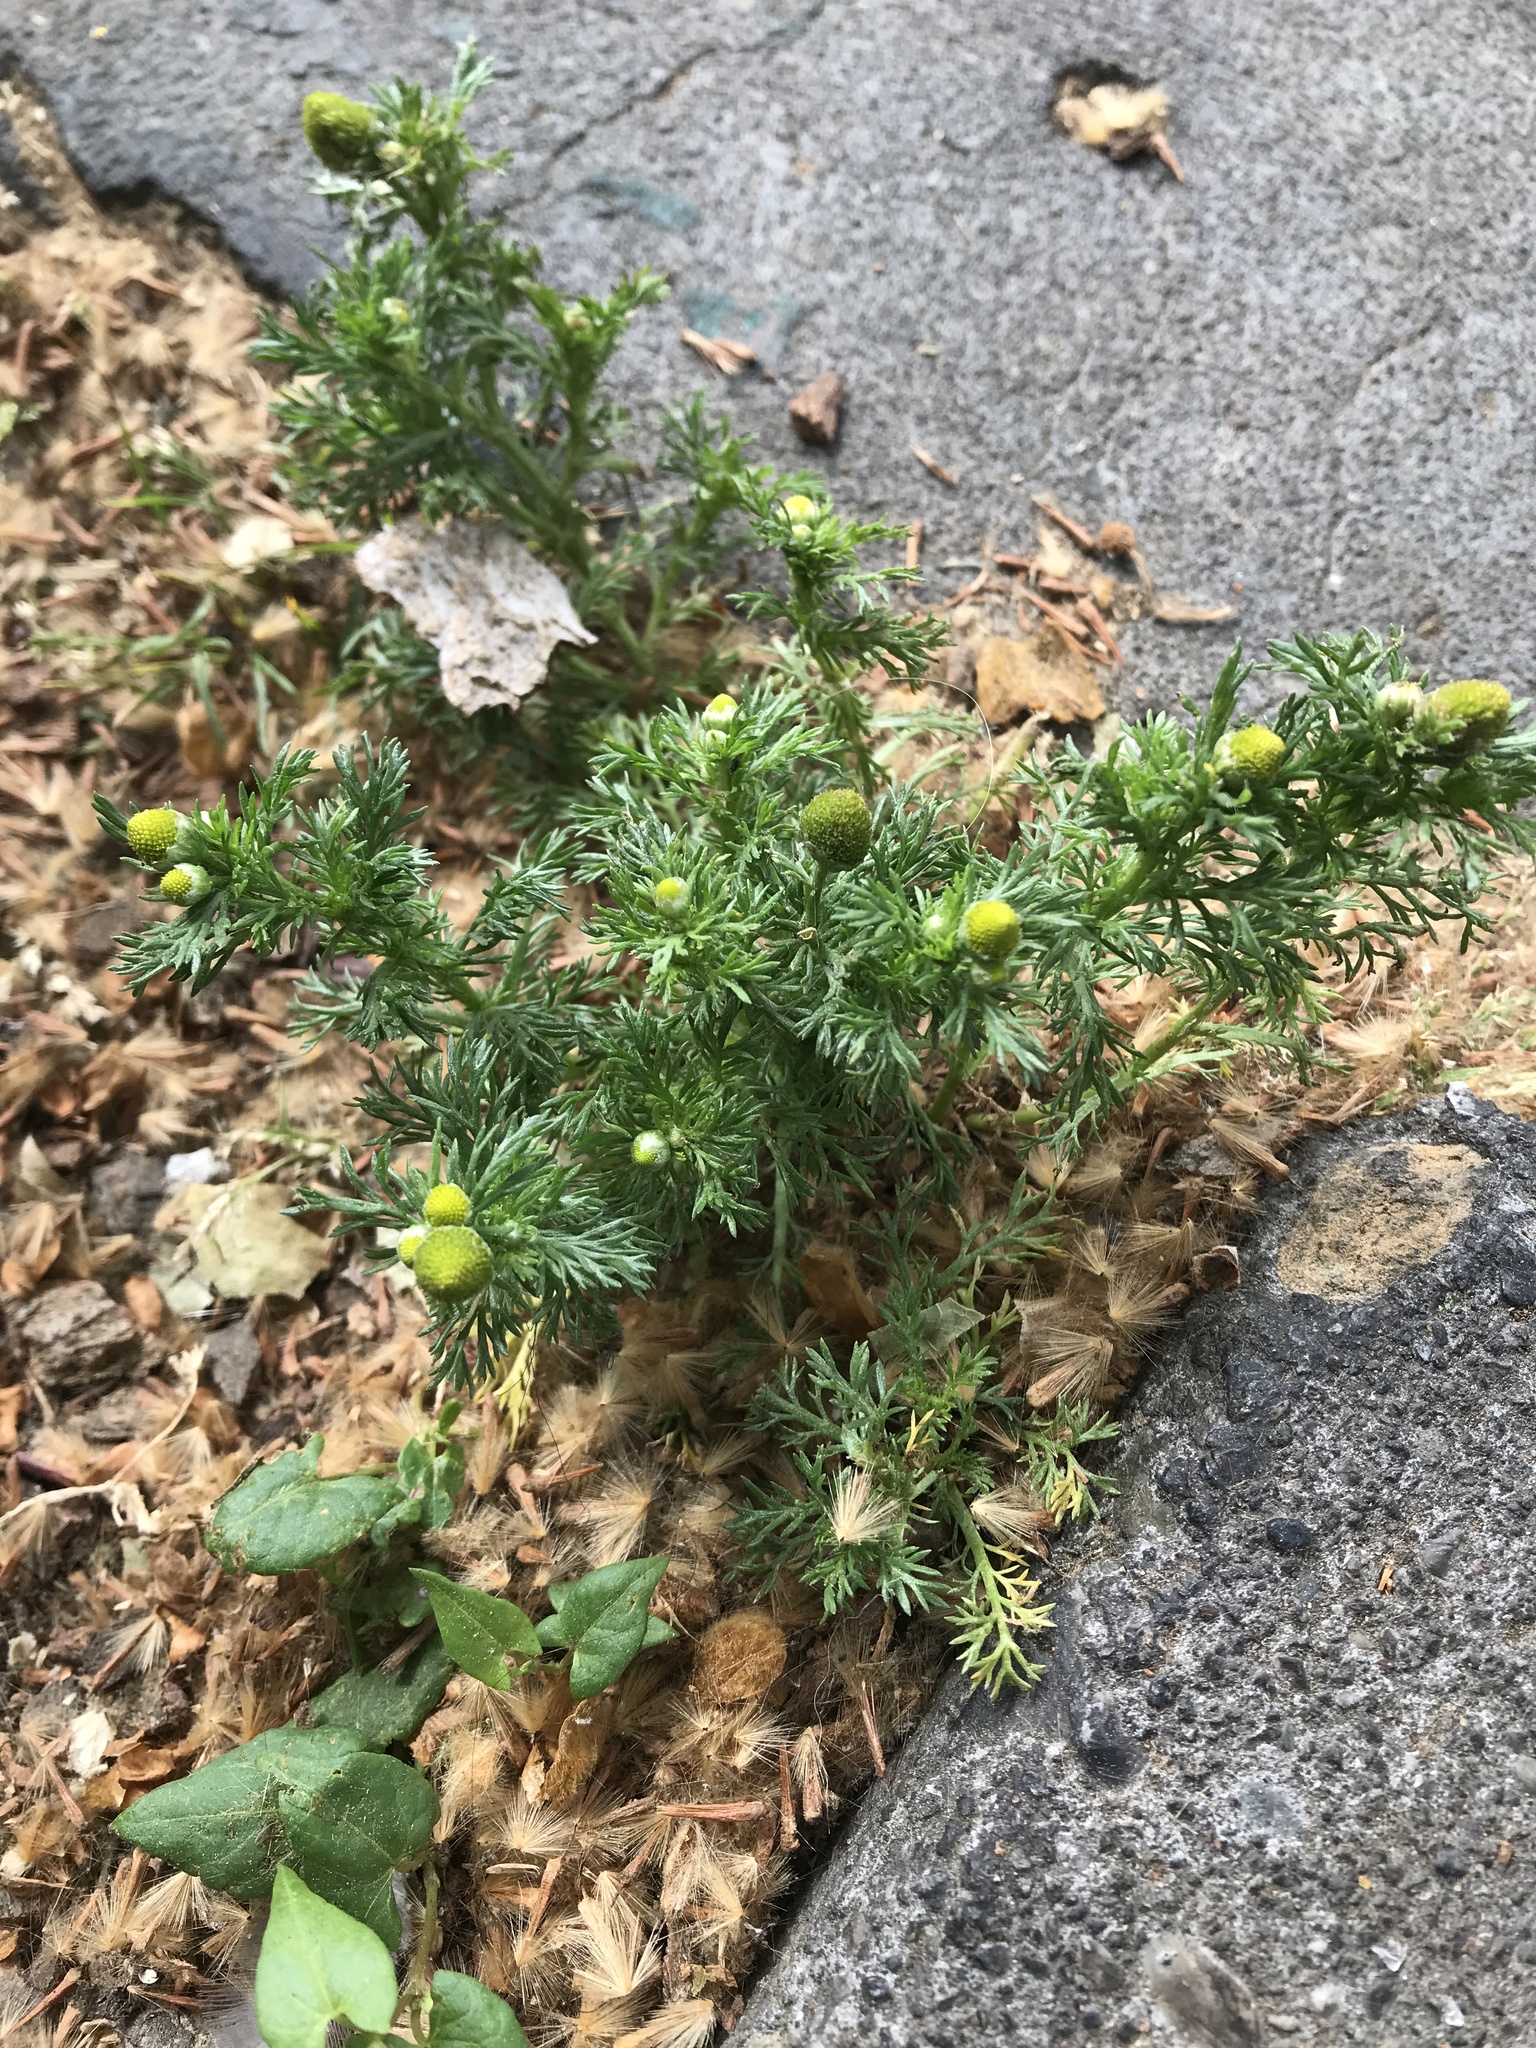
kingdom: Plantae
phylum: Tracheophyta
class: Magnoliopsida
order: Asterales
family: Asteraceae
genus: Matricaria
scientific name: Matricaria discoidea
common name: Disc mayweed
